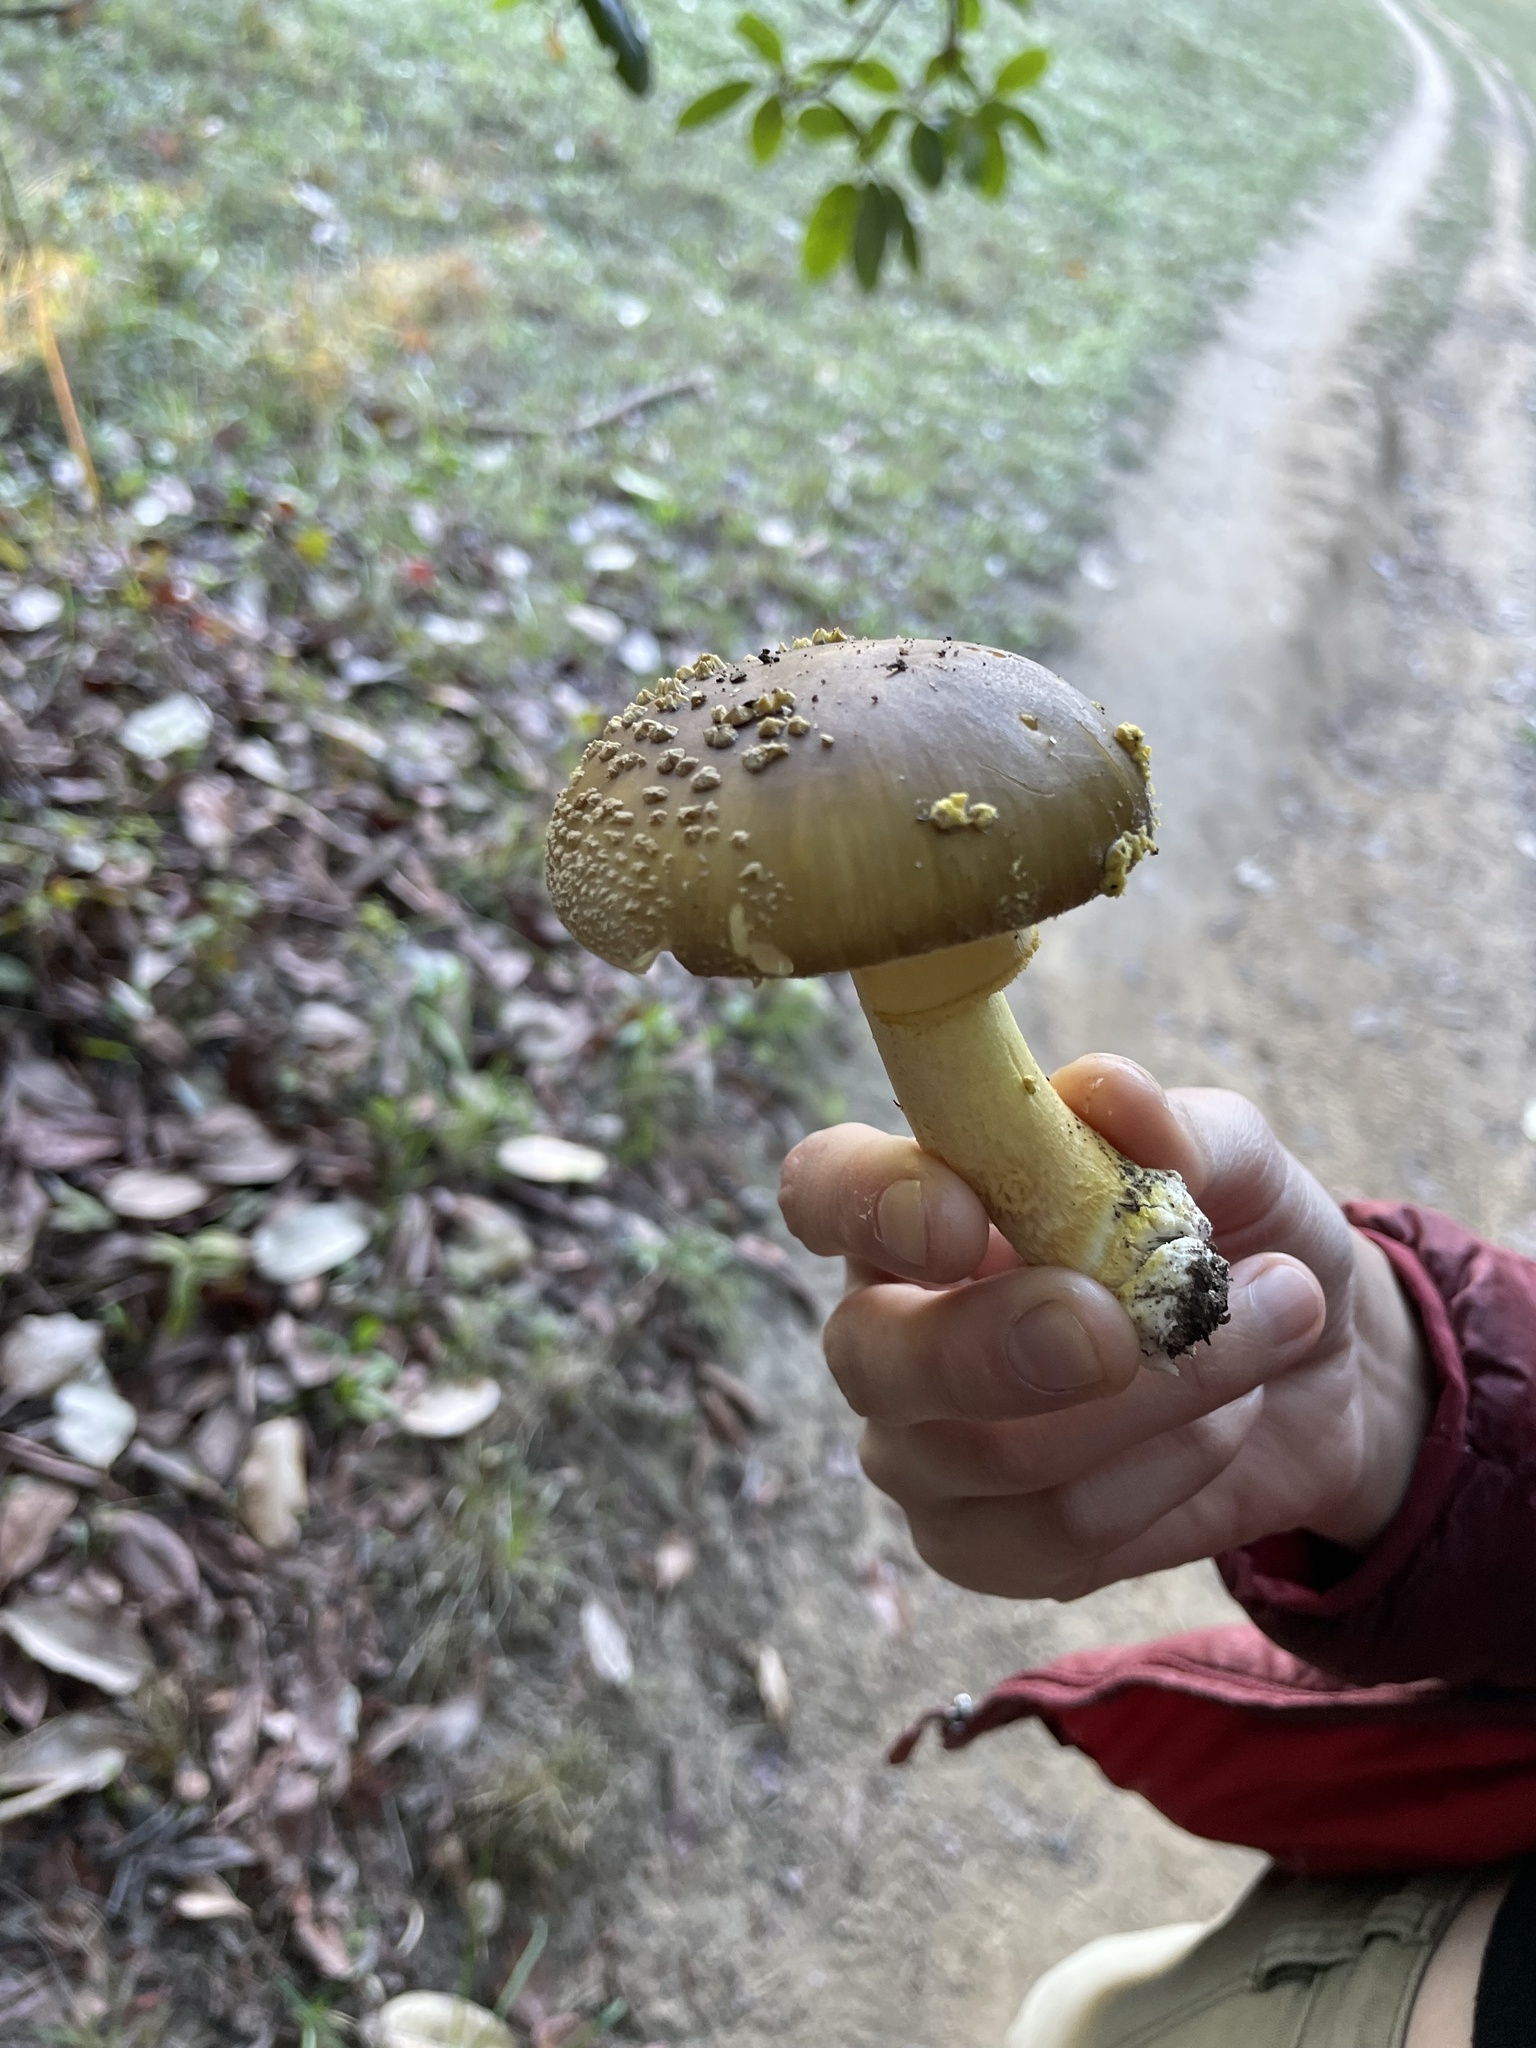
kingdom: Fungi
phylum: Basidiomycota
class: Agaricomycetes
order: Agaricales
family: Amanitaceae
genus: Amanita
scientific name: Amanita augusta
